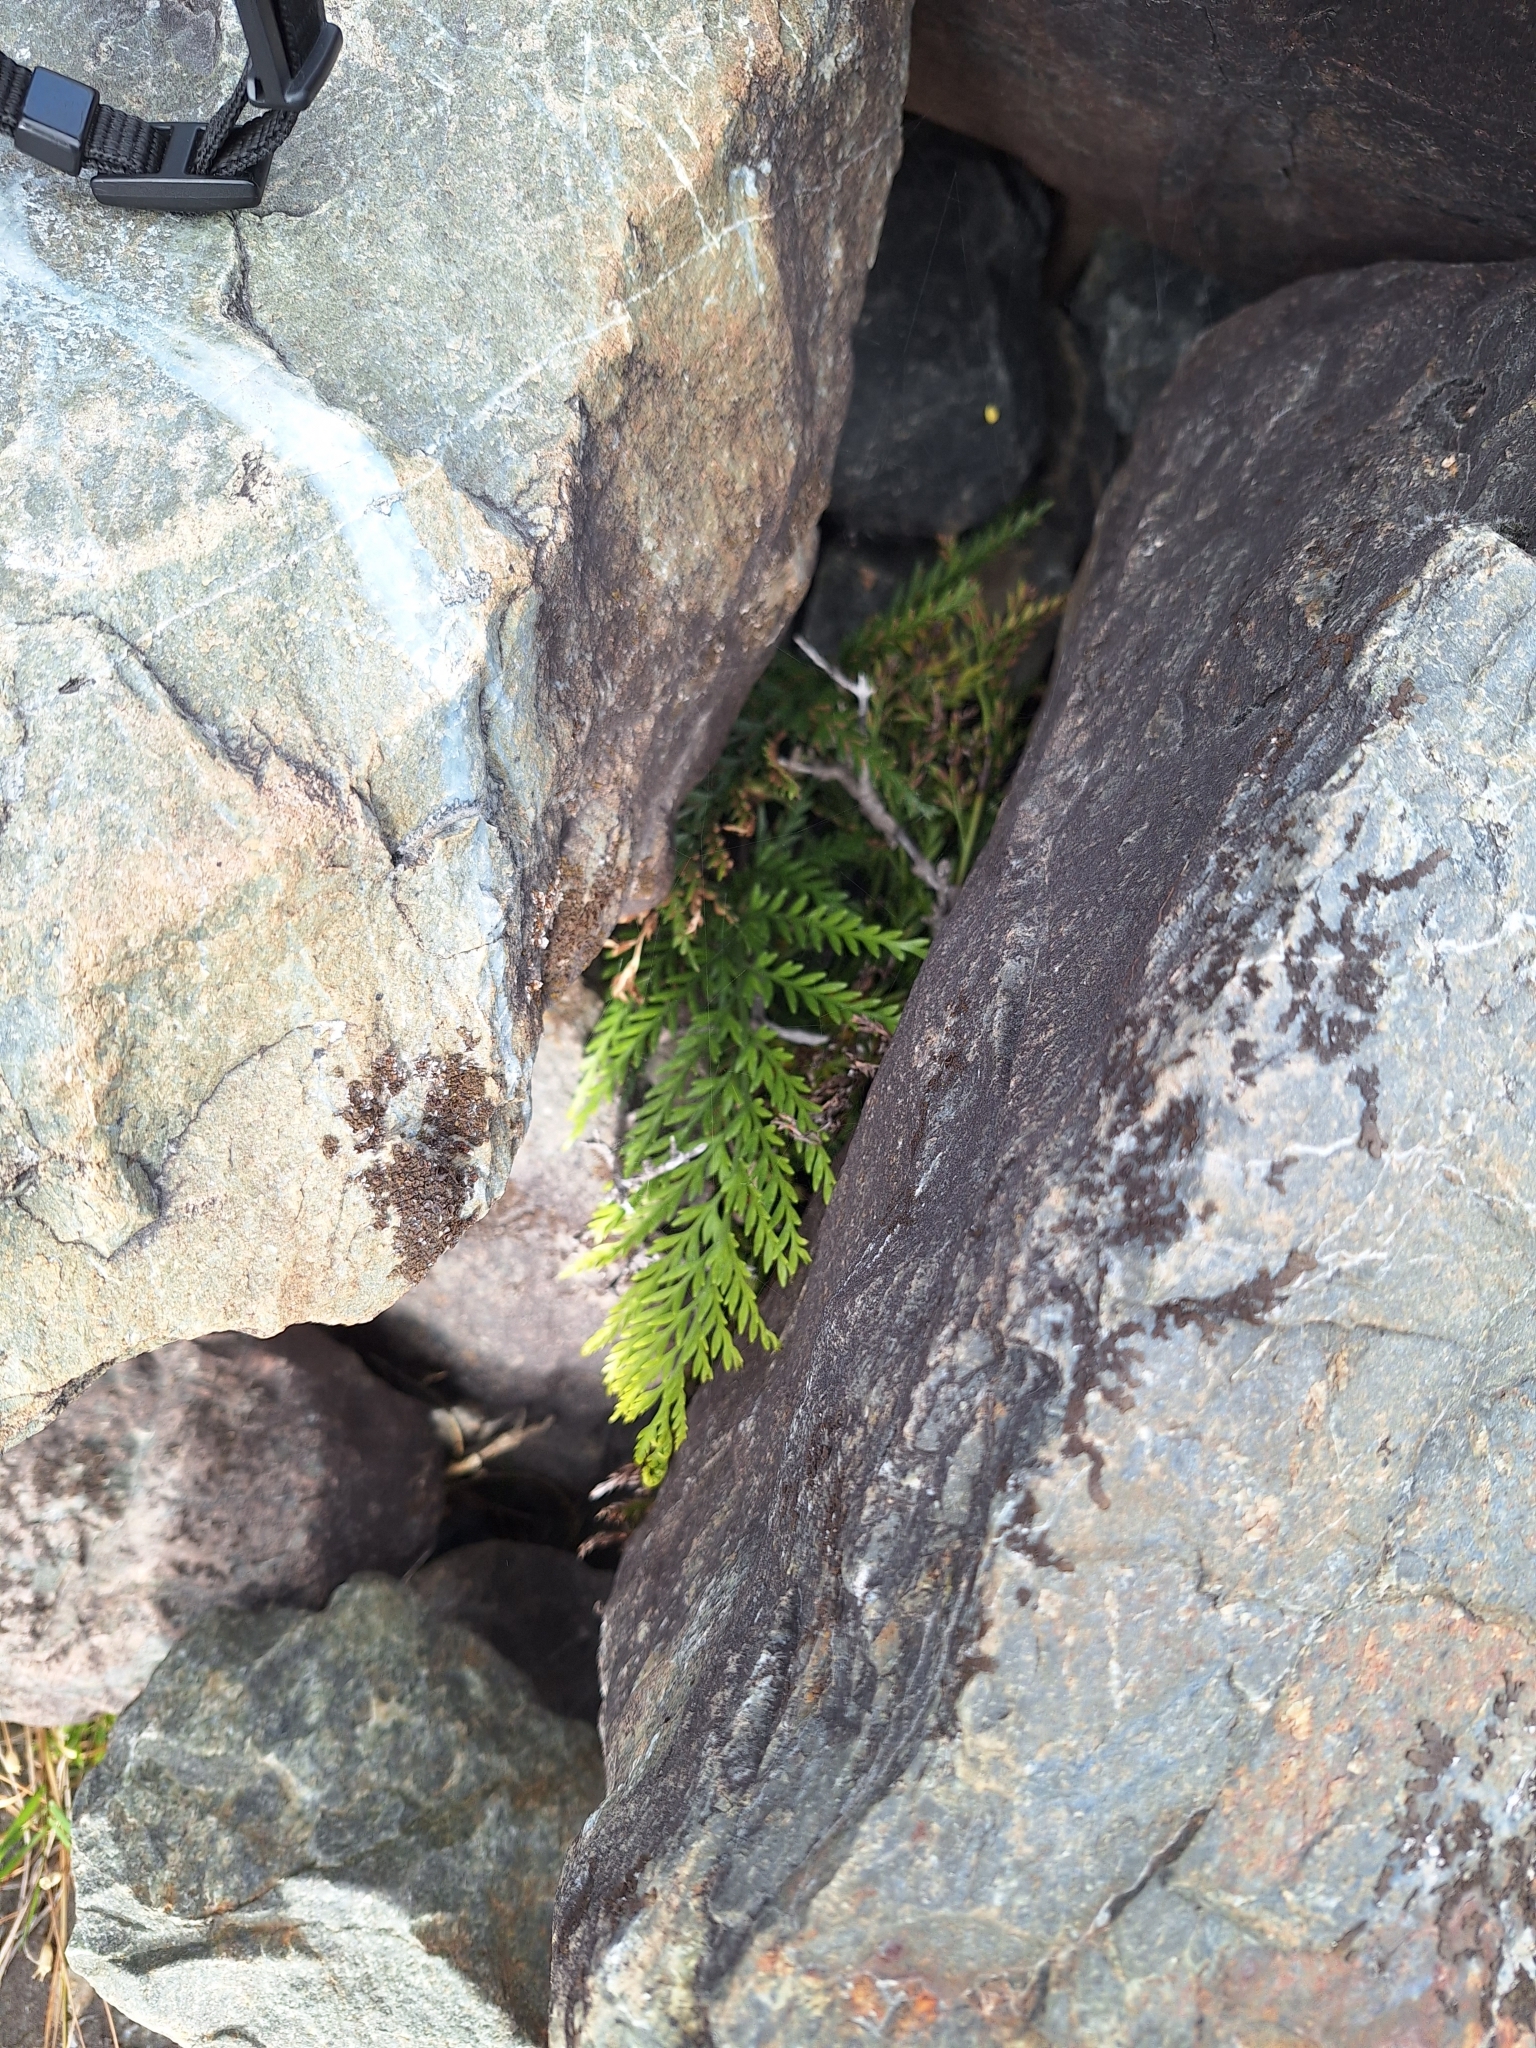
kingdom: Plantae
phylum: Tracheophyta
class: Polypodiopsida
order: Polypodiales
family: Aspleniaceae
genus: Asplenium
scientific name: Asplenium appendiculatum
